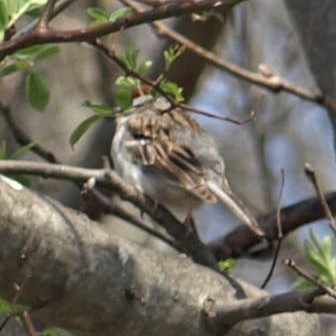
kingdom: Animalia
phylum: Chordata
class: Aves
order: Passeriformes
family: Passerellidae
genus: Spizella
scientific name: Spizella passerina
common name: Chipping sparrow
